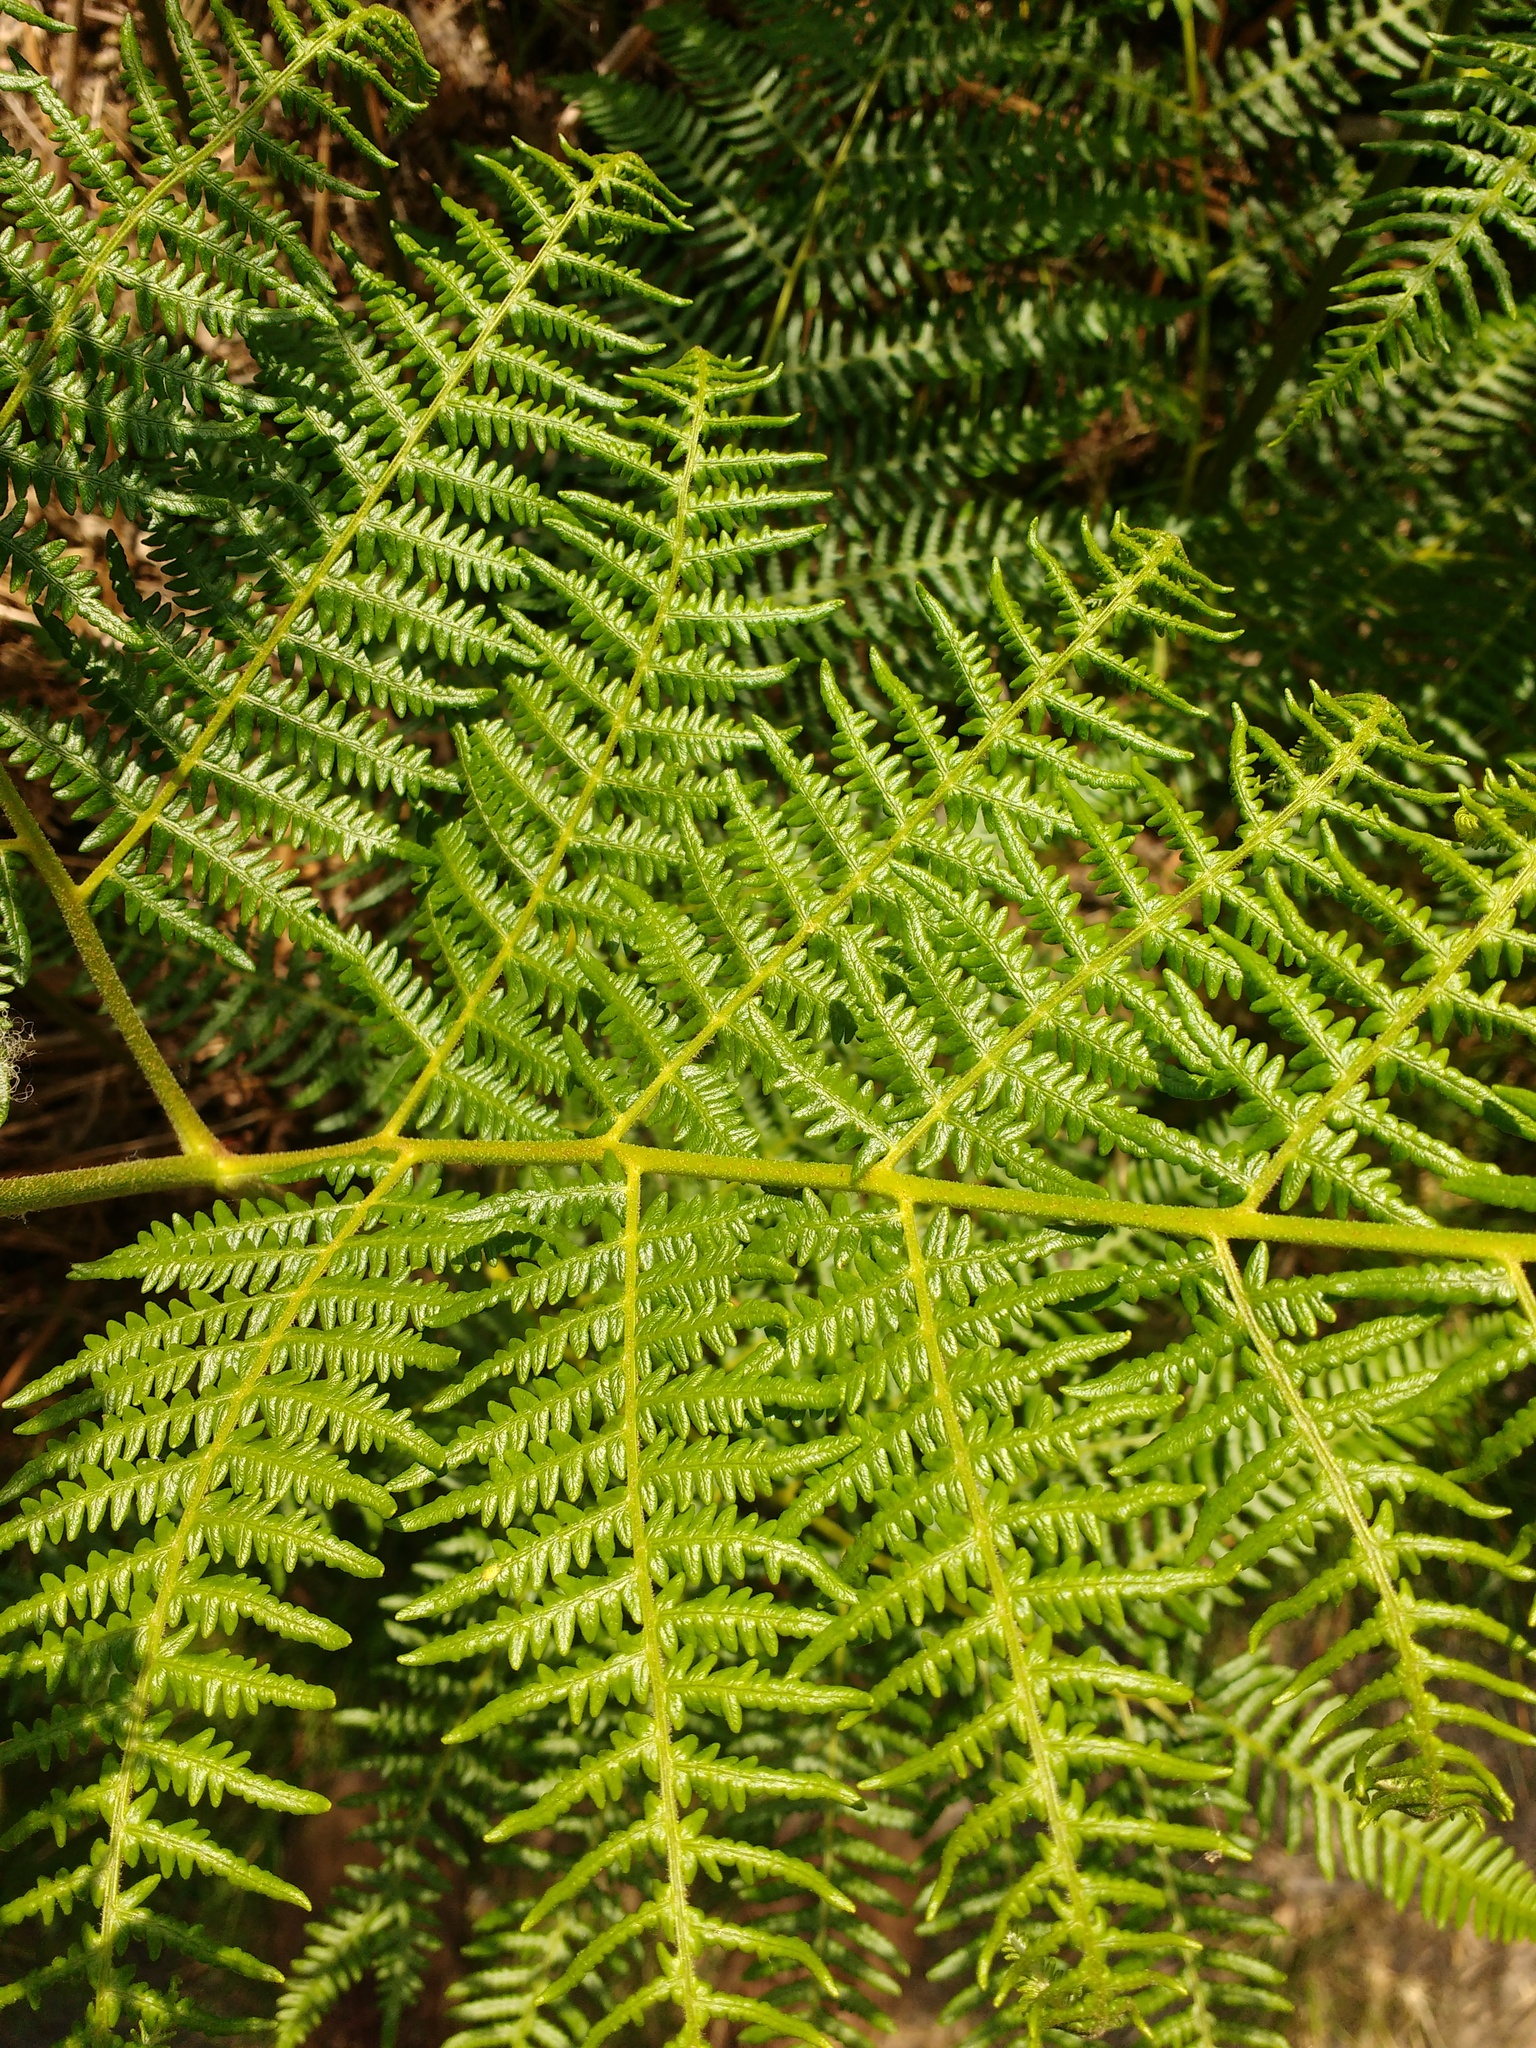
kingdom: Plantae
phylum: Tracheophyta
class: Polypodiopsida
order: Polypodiales
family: Dennstaedtiaceae
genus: Pteridium
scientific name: Pteridium aquilinum
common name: Bracken
